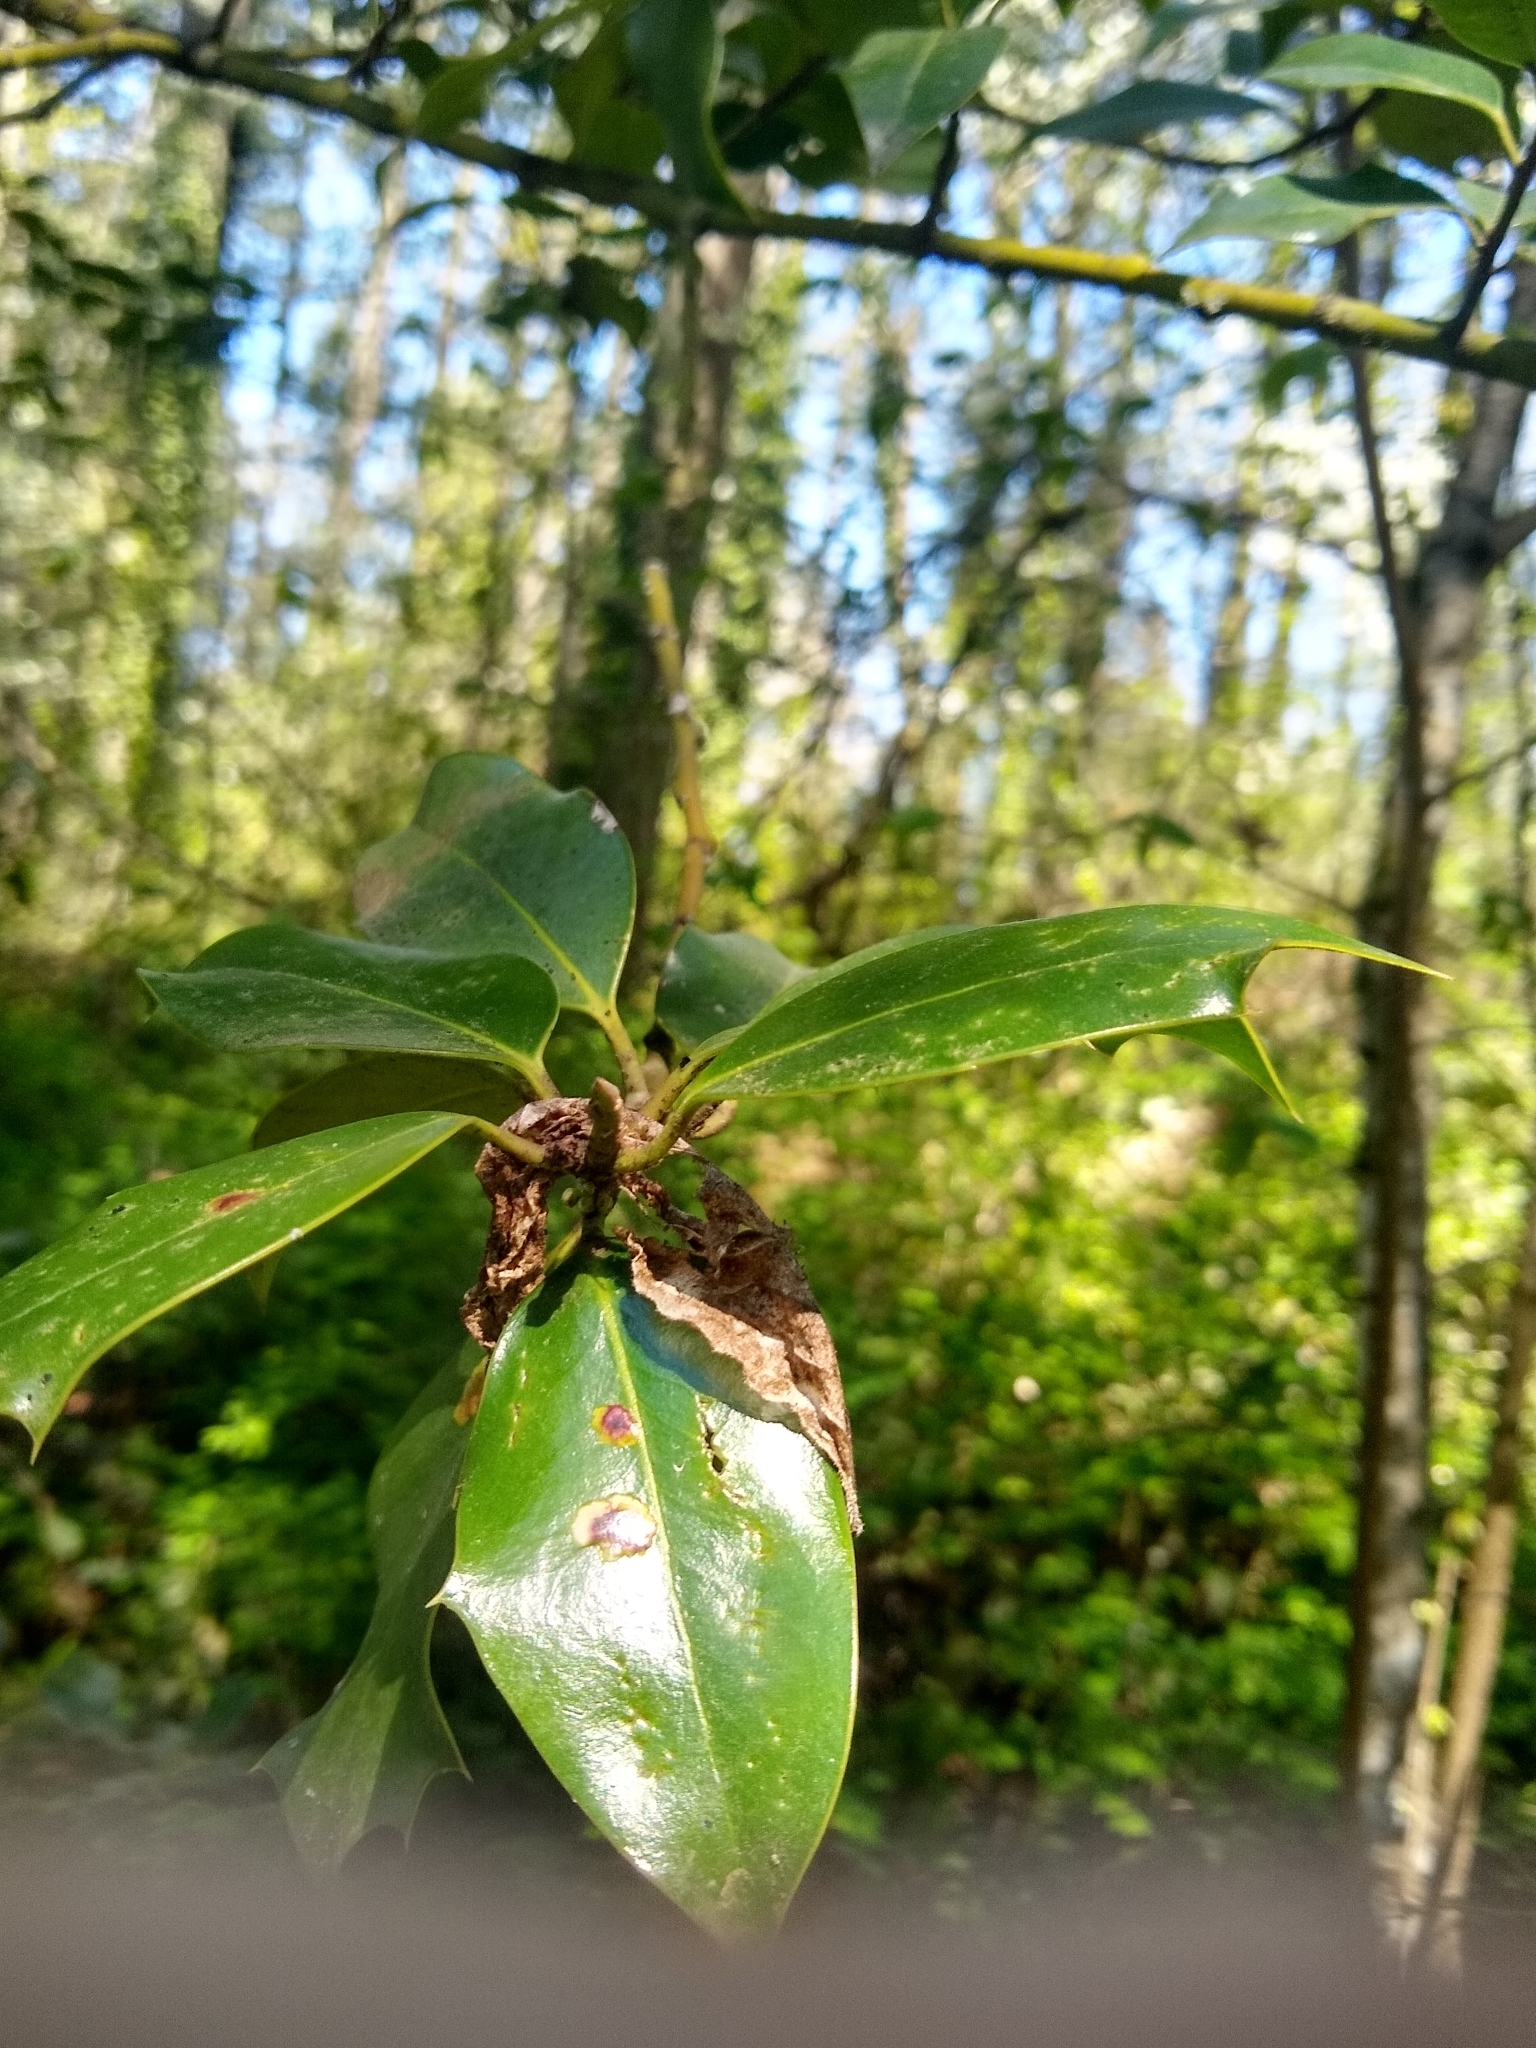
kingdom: Plantae
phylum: Tracheophyta
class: Magnoliopsida
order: Aquifoliales
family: Aquifoliaceae
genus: Ilex
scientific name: Ilex aquifolium
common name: English holly
